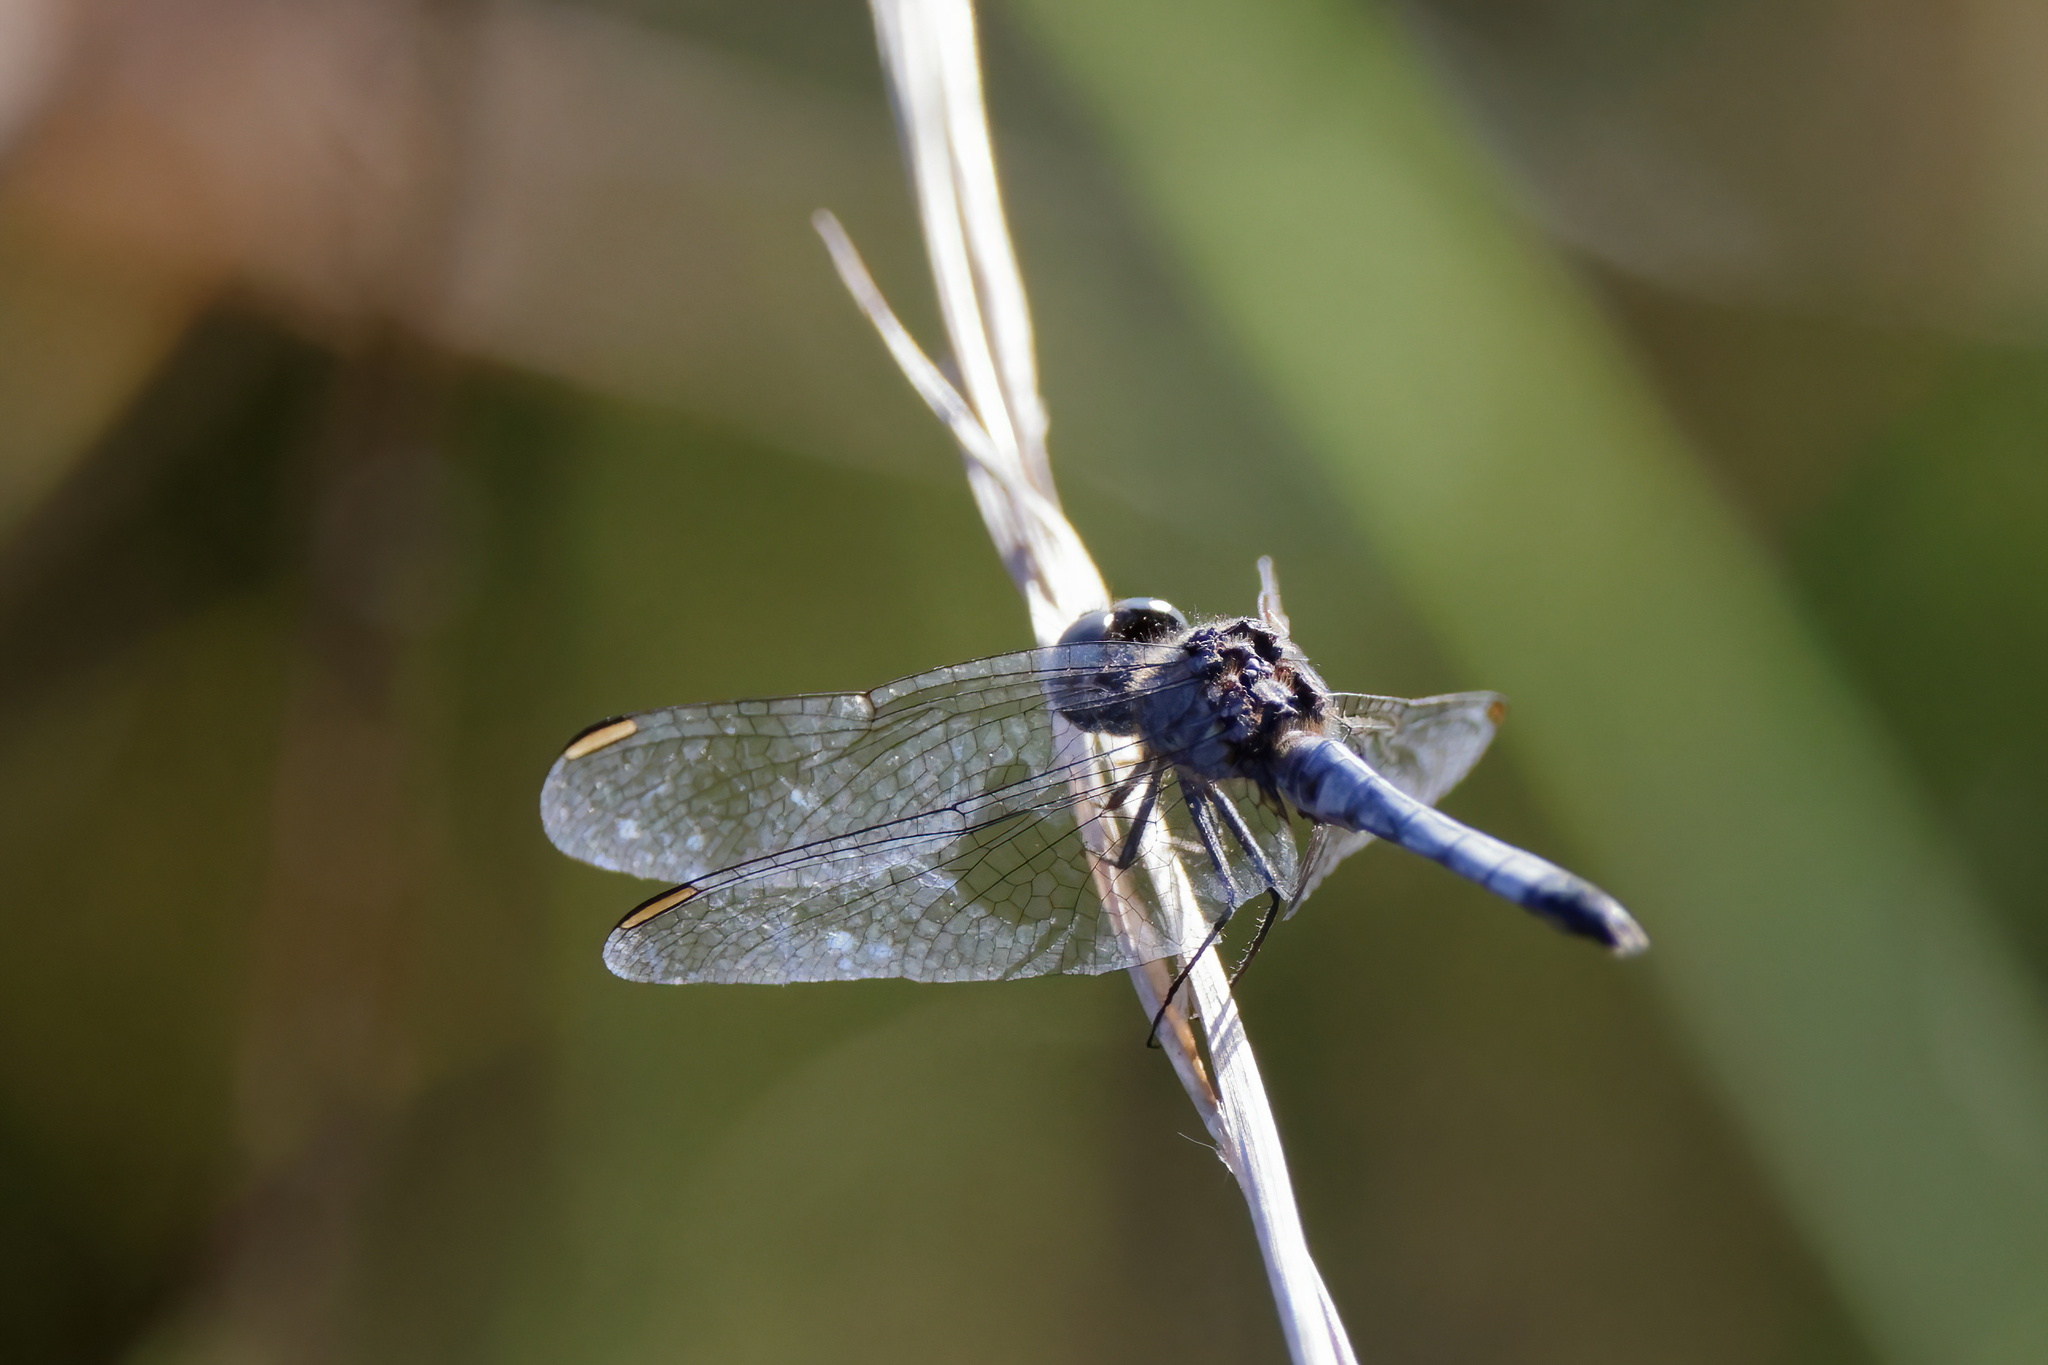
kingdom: Animalia
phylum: Arthropoda
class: Insecta
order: Odonata
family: Libellulidae
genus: Erythrodiplax
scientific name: Erythrodiplax minuscula
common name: Little blue dragonlet
